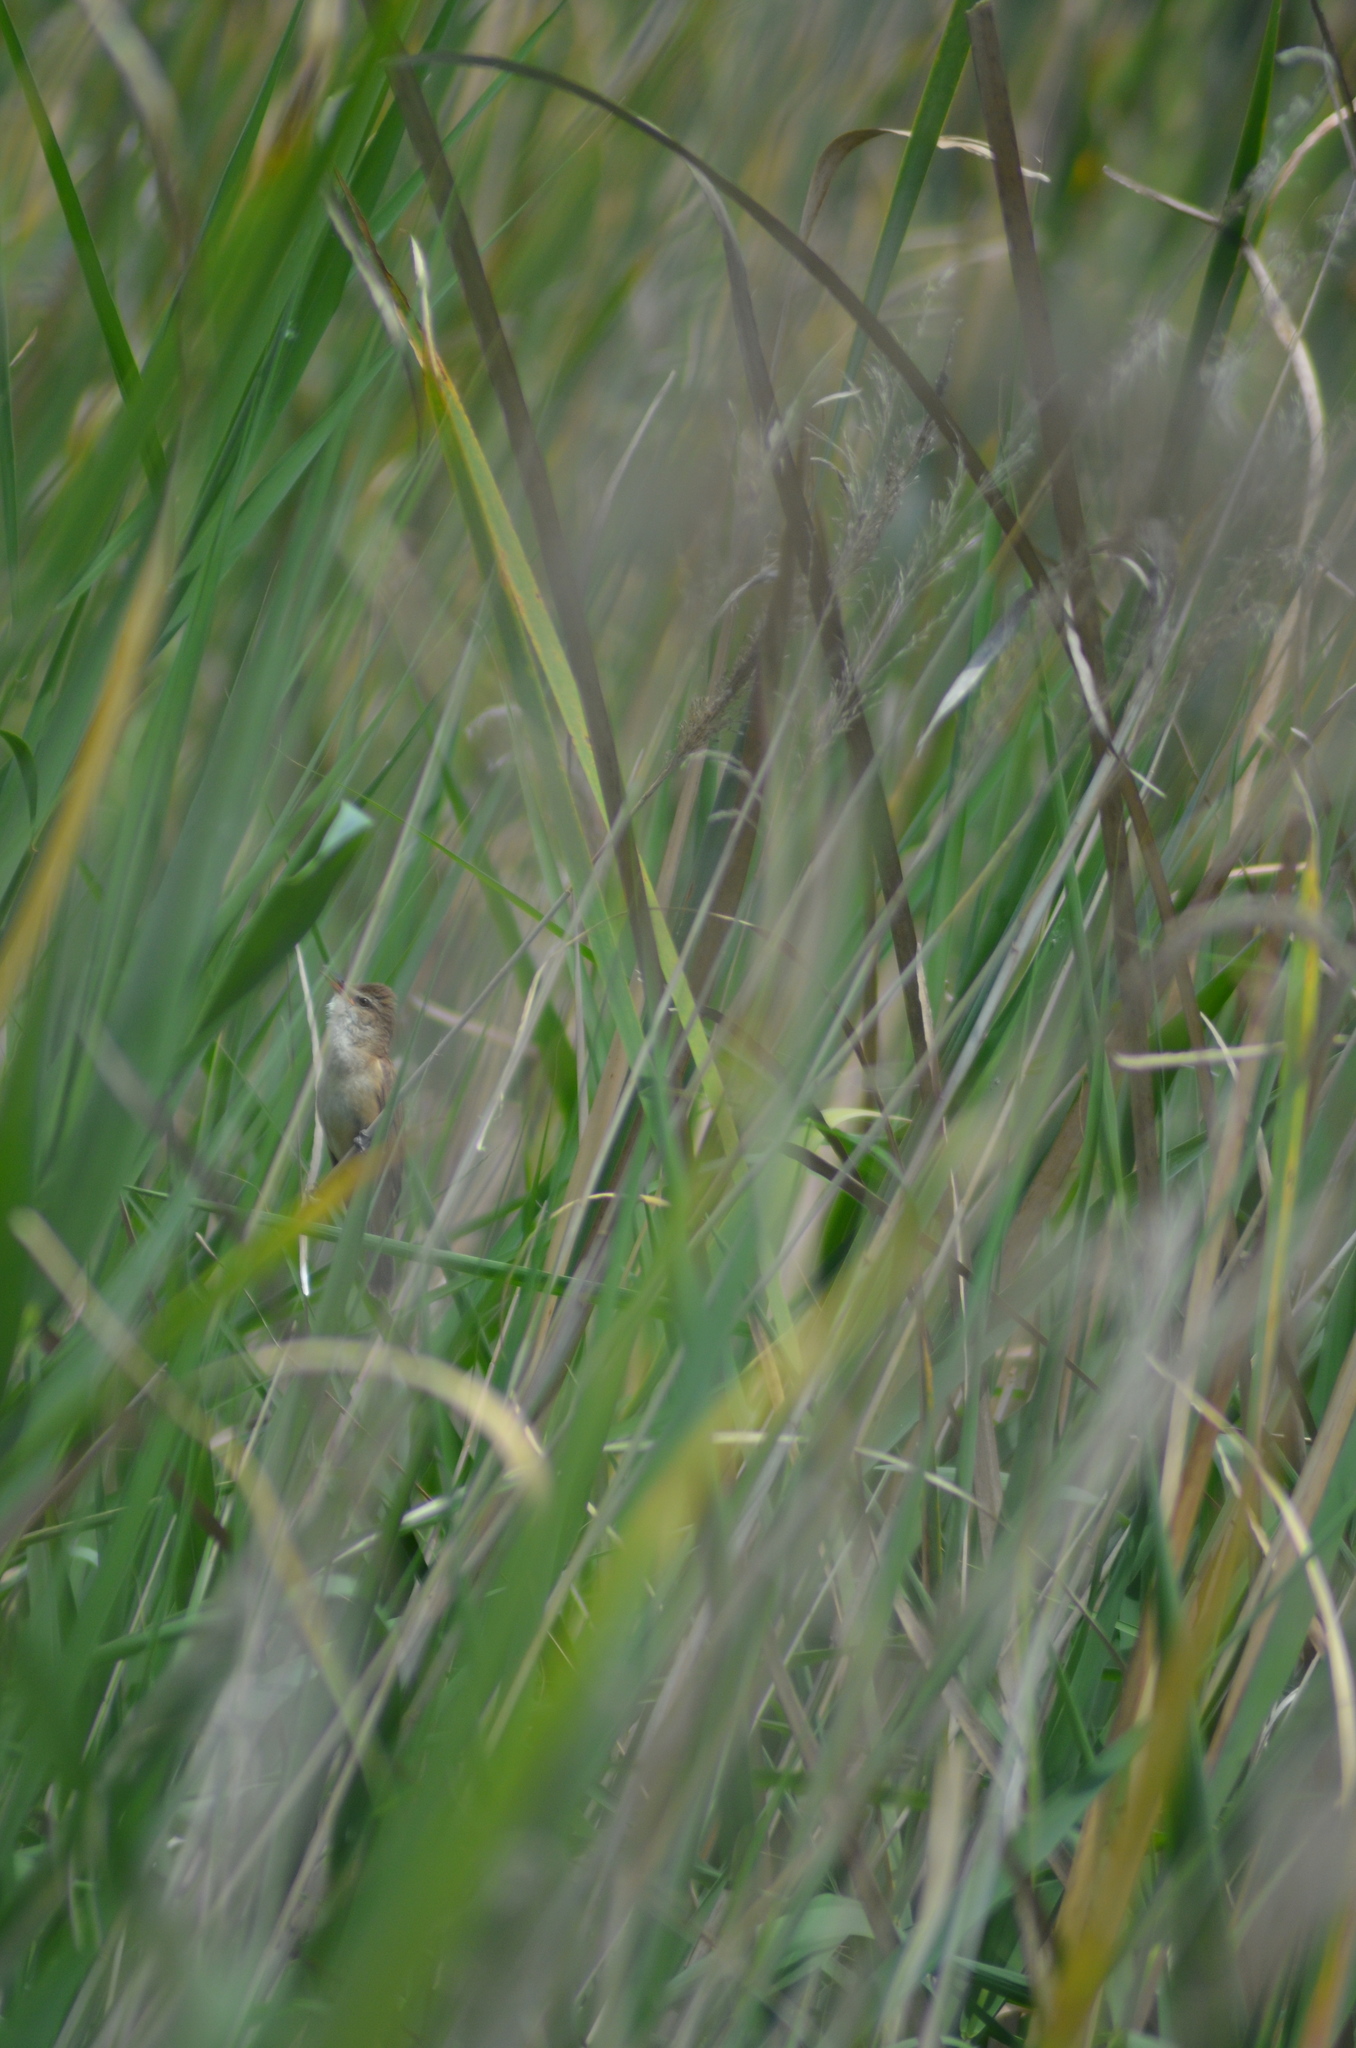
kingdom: Animalia
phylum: Chordata
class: Aves
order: Passeriformes
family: Acrocephalidae
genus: Acrocephalus
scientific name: Acrocephalus arundinaceus
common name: Great reed warbler
